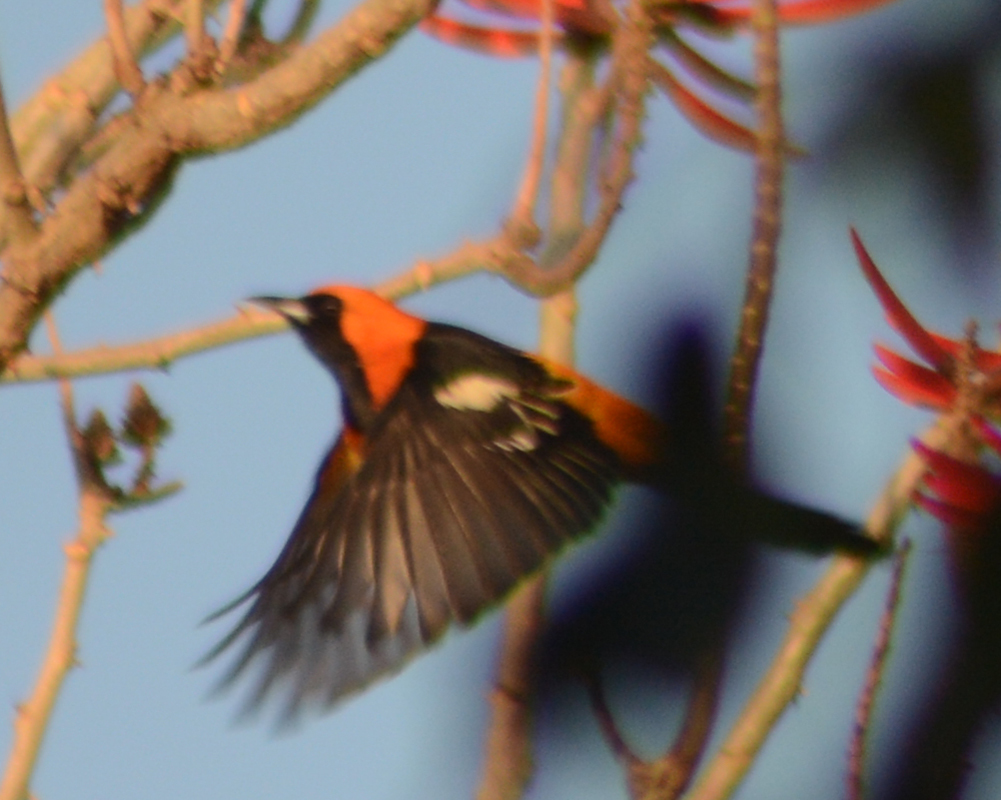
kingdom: Animalia
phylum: Chordata
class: Aves
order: Passeriformes
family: Icteridae
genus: Icterus
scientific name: Icterus cucullatus
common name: Hooded oriole
